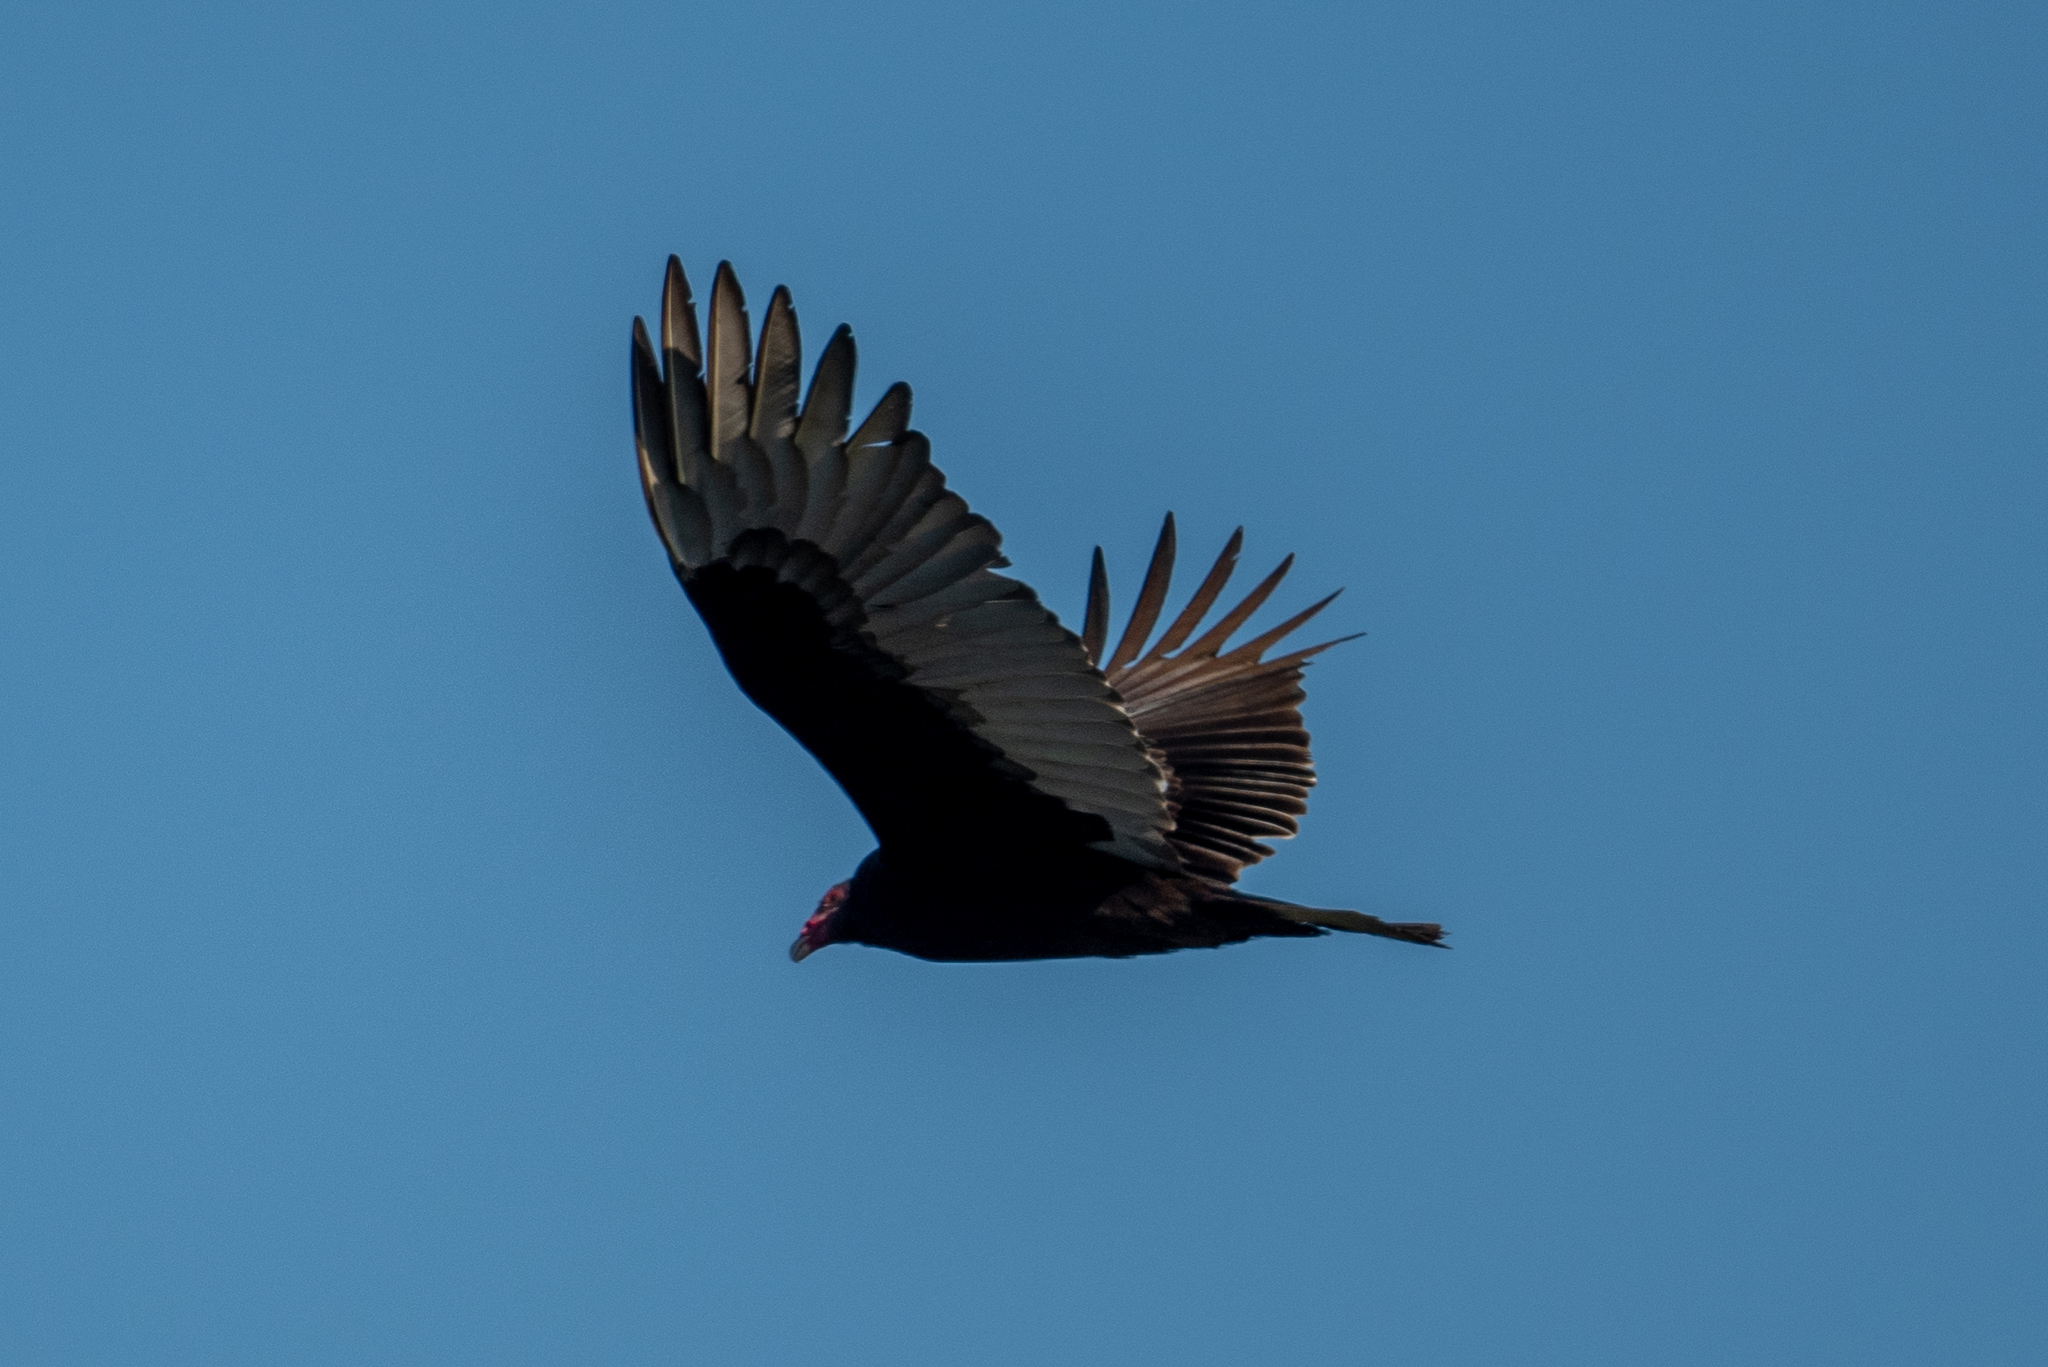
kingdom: Animalia
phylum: Chordata
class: Aves
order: Accipitriformes
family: Cathartidae
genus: Cathartes
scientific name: Cathartes aura
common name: Turkey vulture
